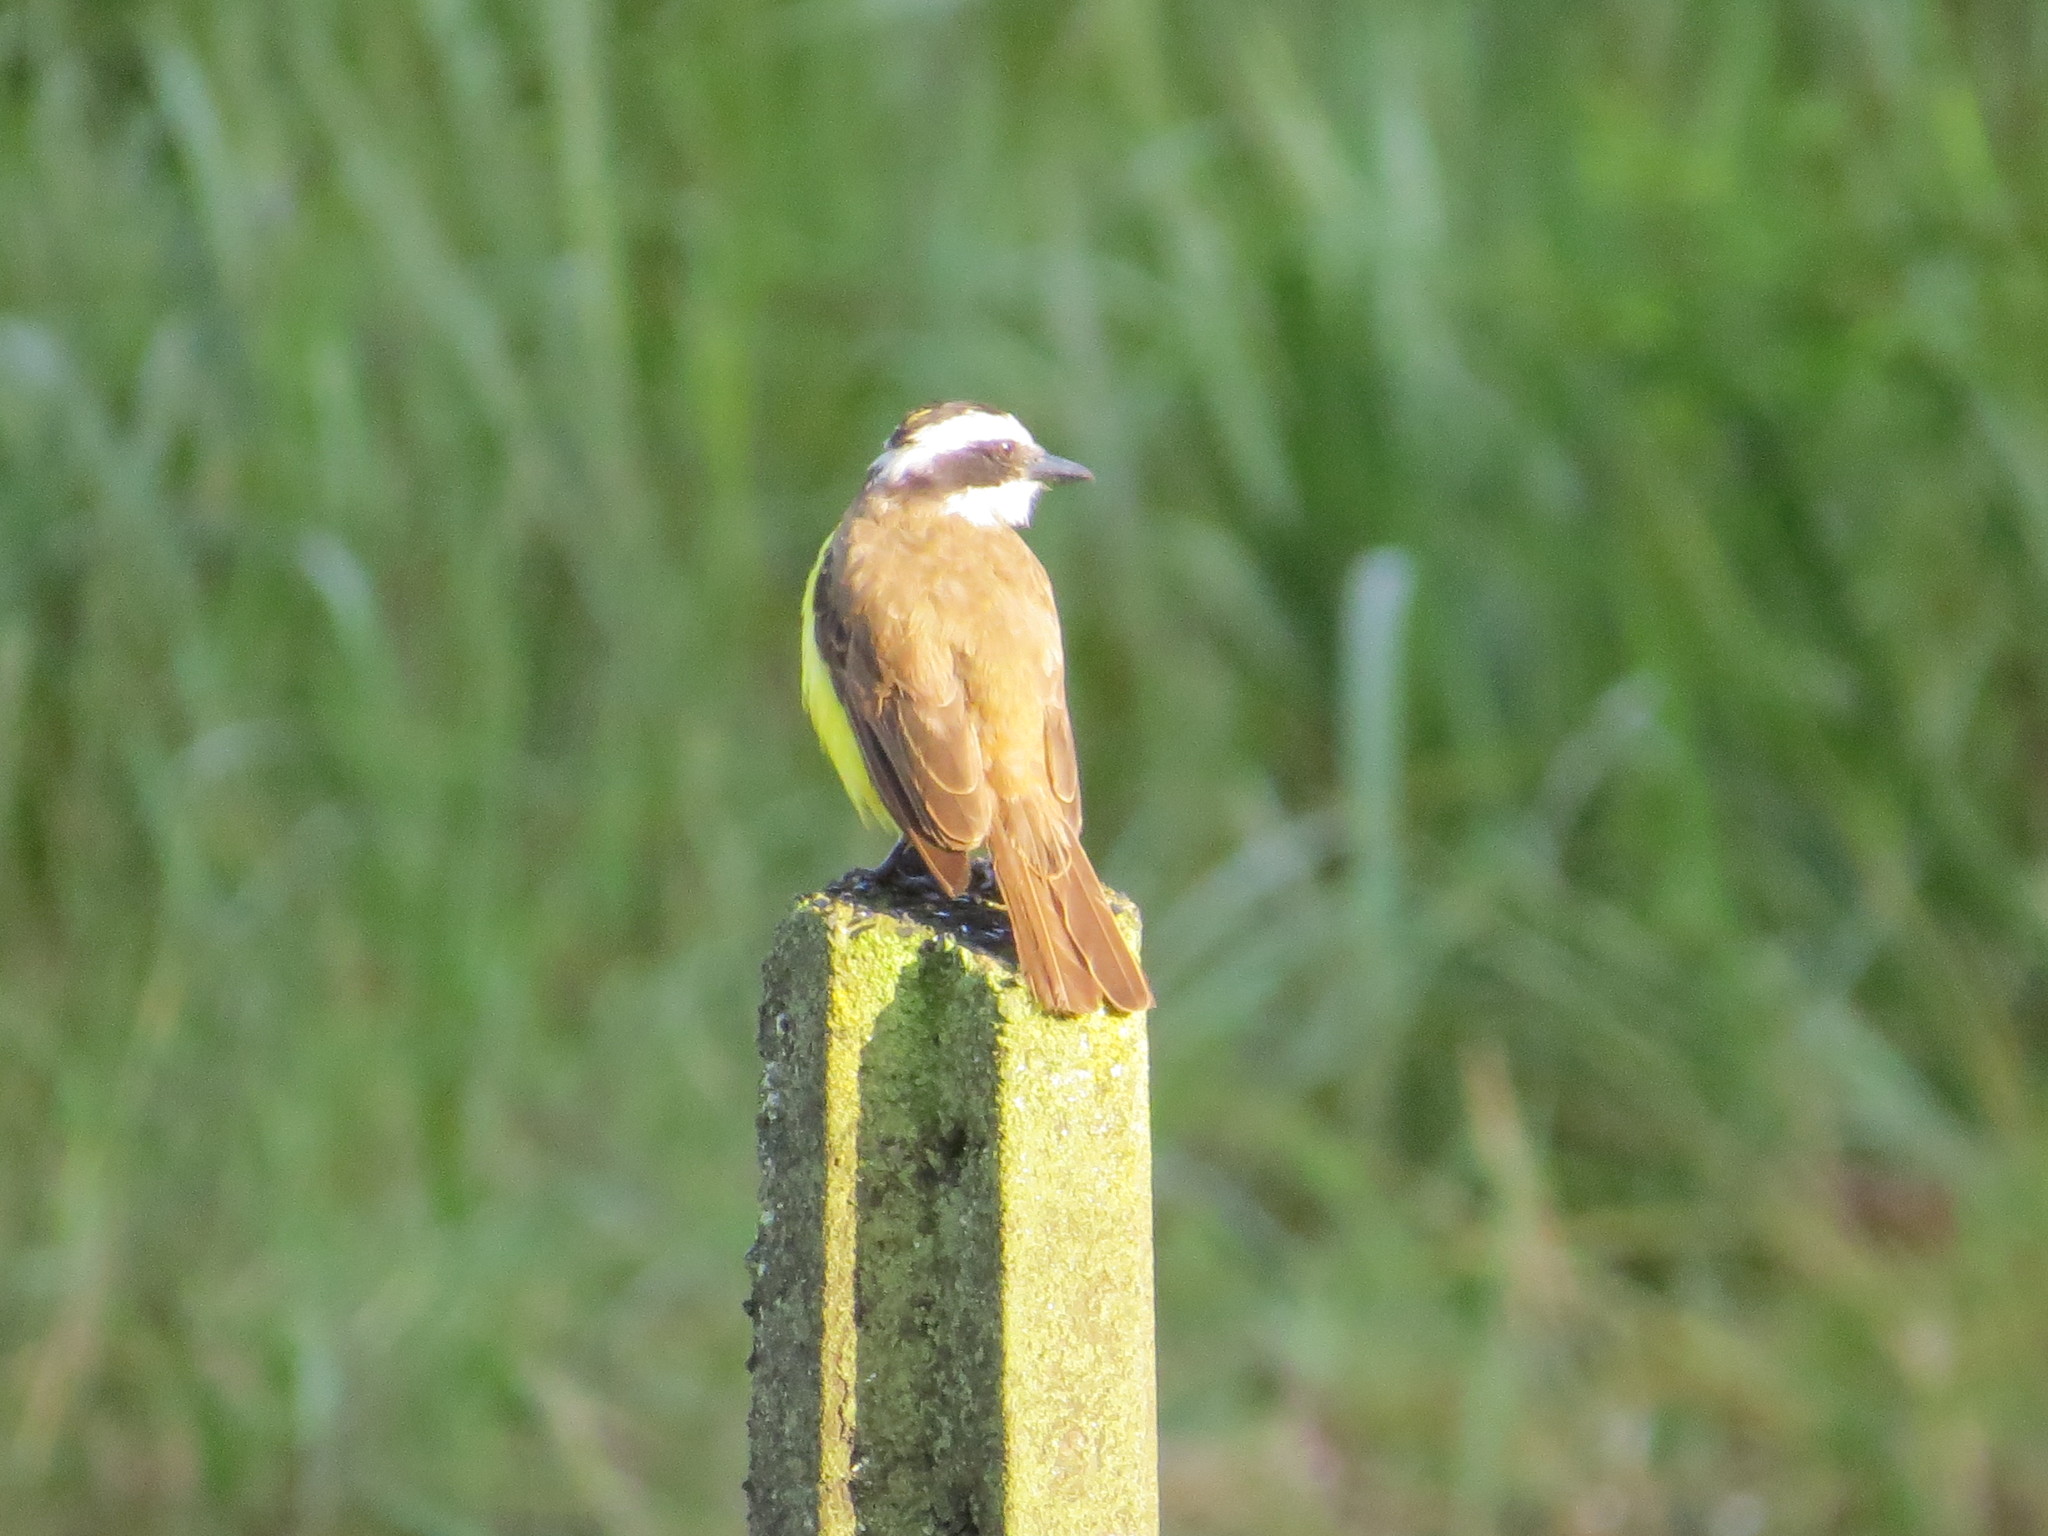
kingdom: Animalia
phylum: Chordata
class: Aves
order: Passeriformes
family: Tyrannidae
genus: Pitangus
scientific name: Pitangus sulphuratus
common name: Great kiskadee
